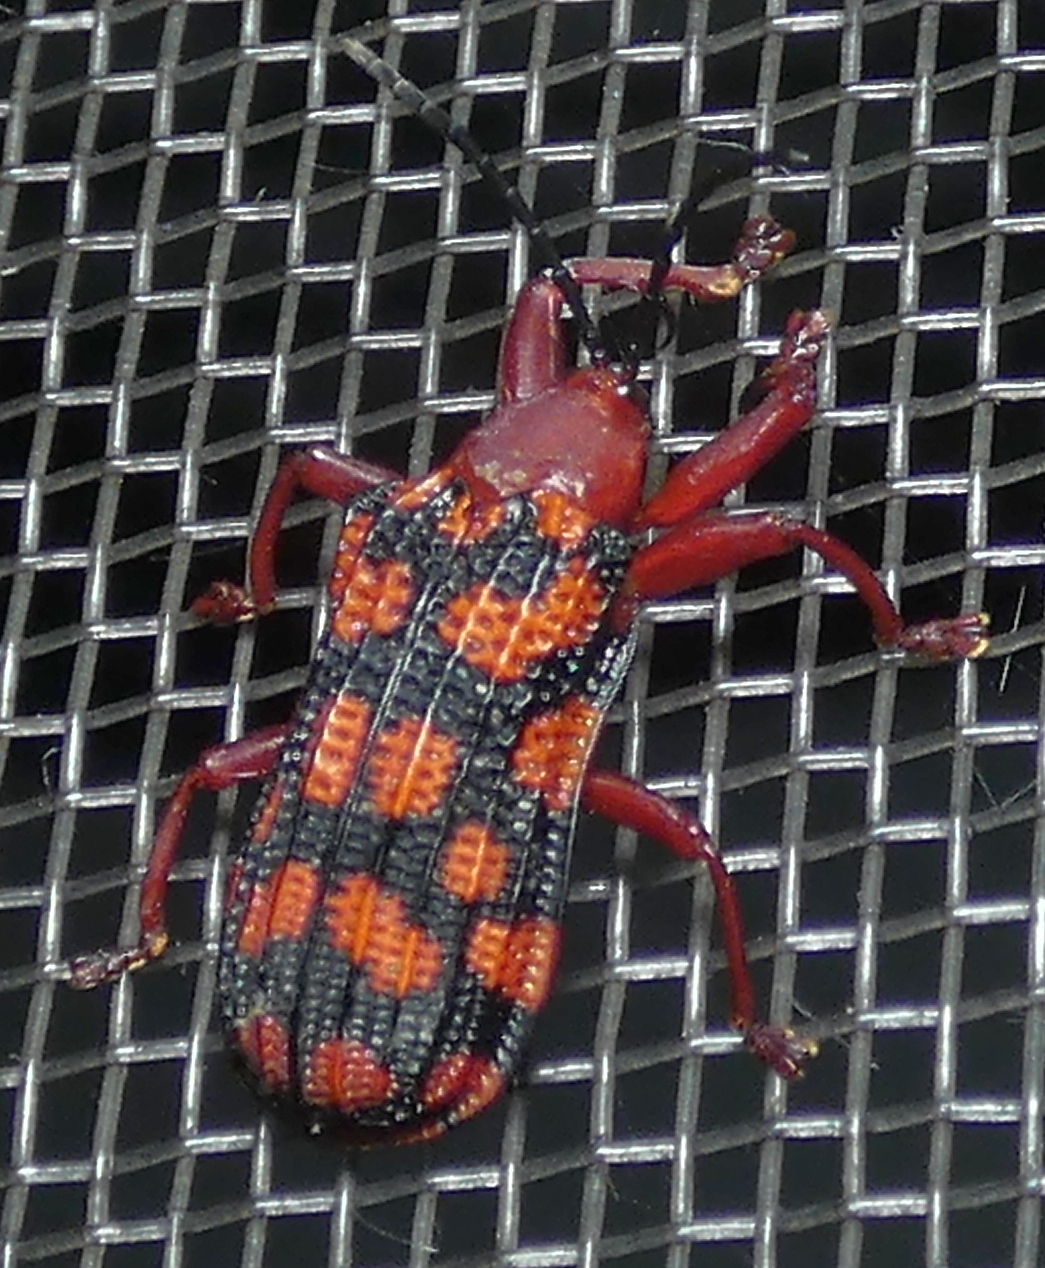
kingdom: Animalia
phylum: Arthropoda
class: Insecta
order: Coleoptera
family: Chrysomelidae
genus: Sceloenopla
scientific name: Sceloenopla maculata
